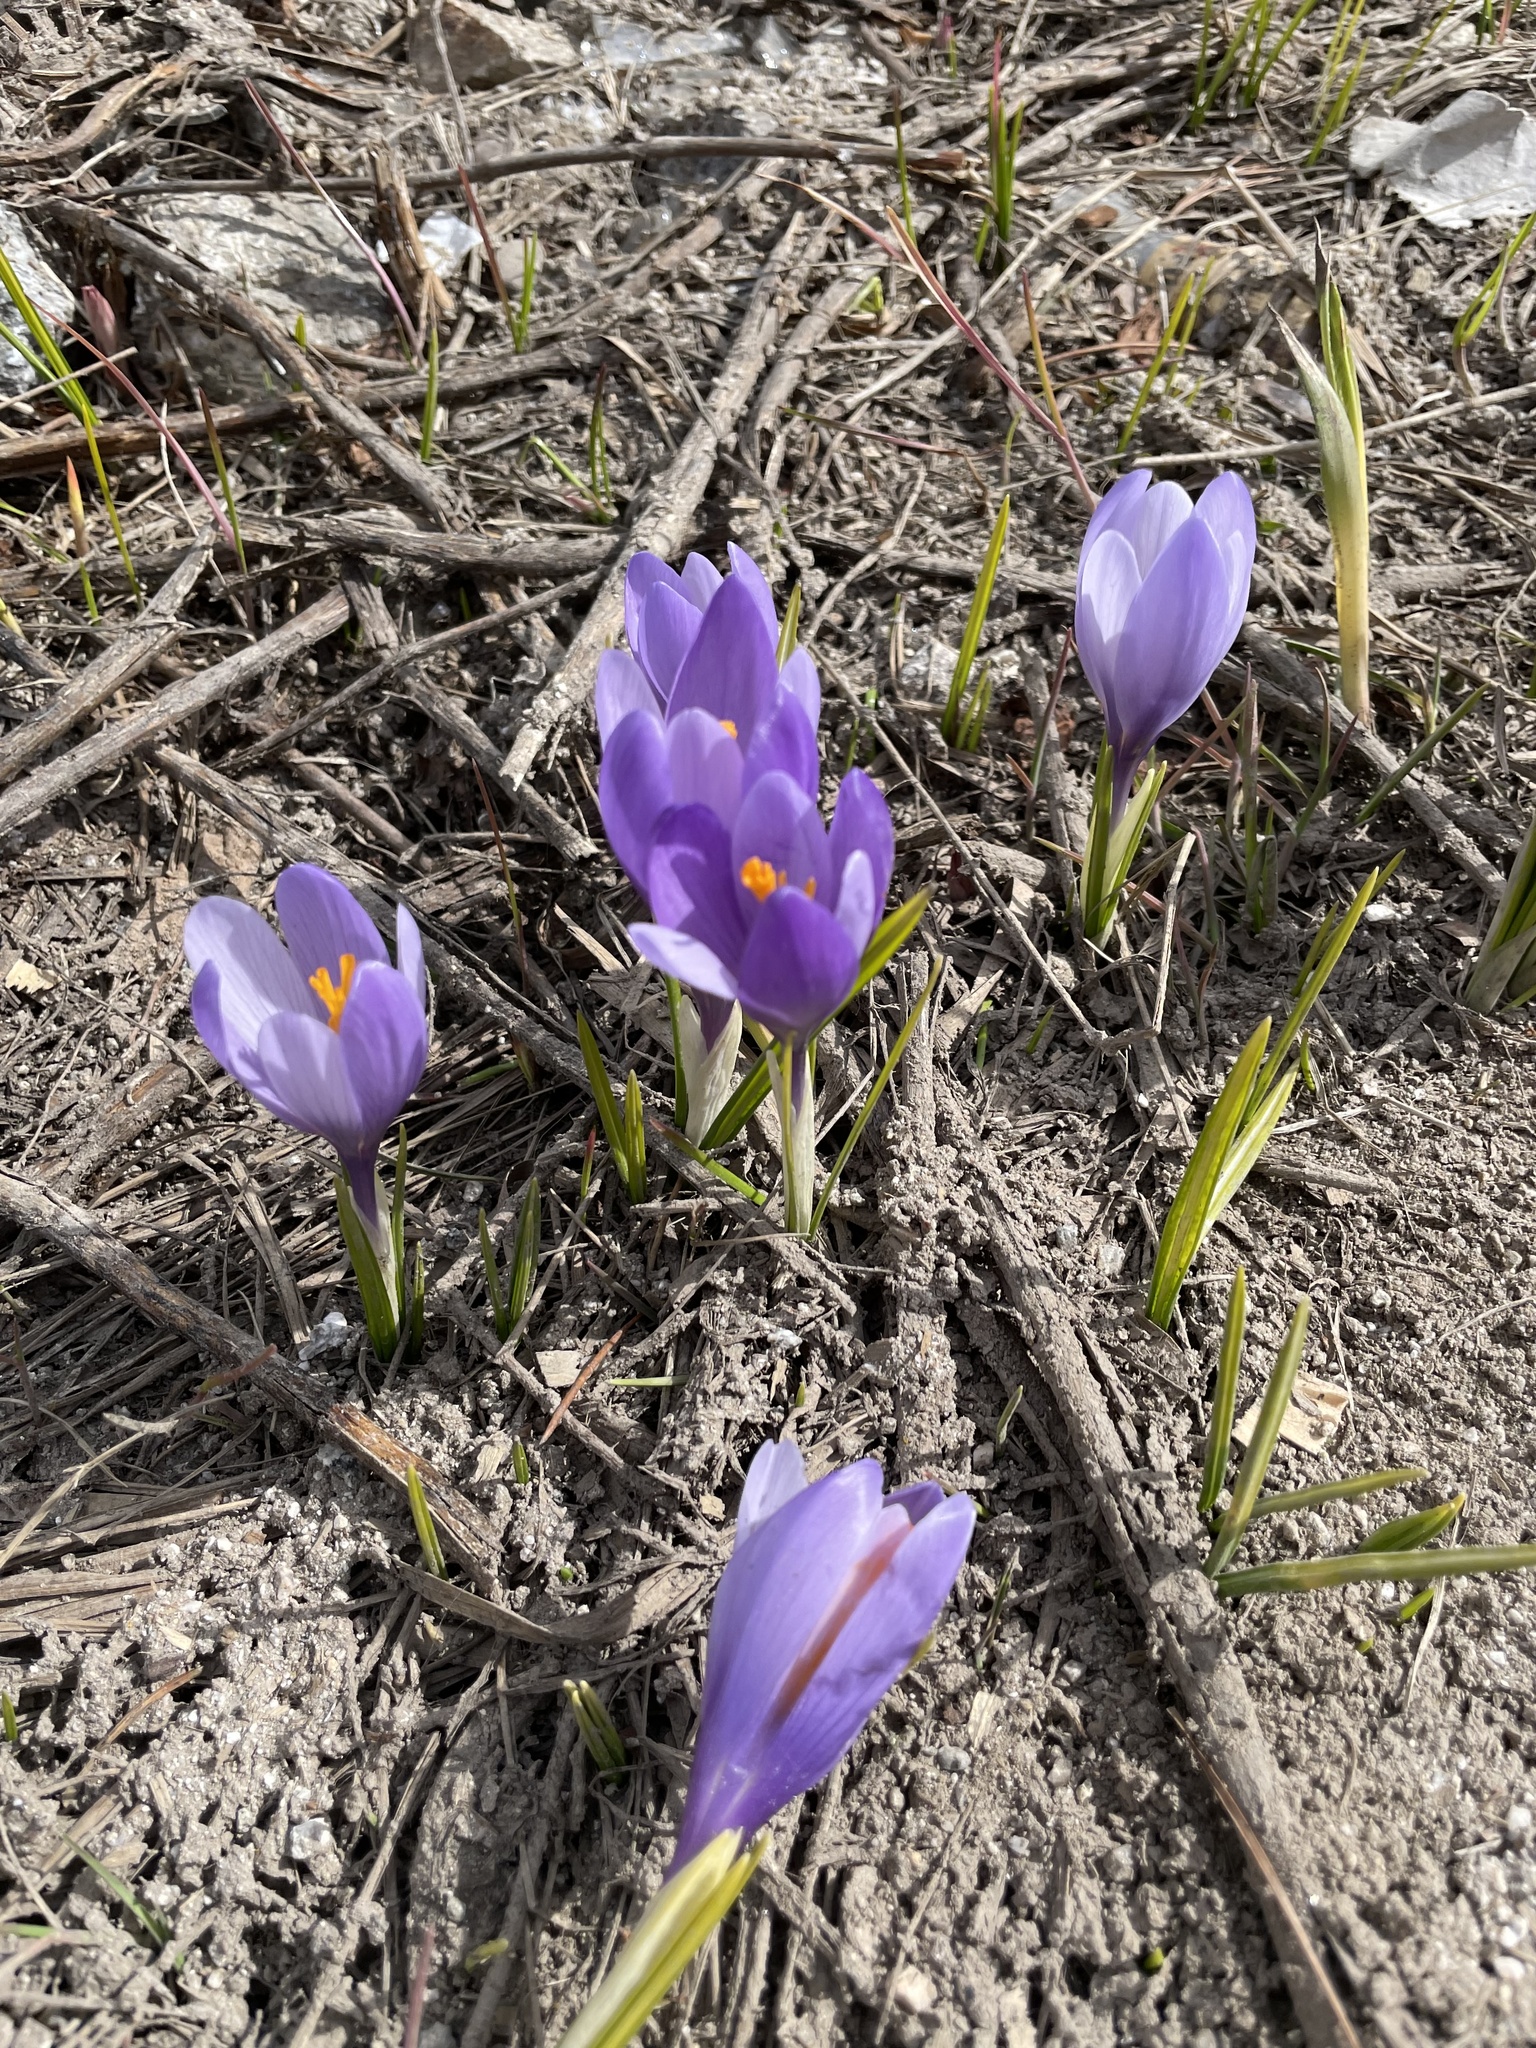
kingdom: Plantae
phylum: Tracheophyta
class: Liliopsida
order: Asparagales
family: Iridaceae
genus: Crocus
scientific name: Crocus veluchensis
